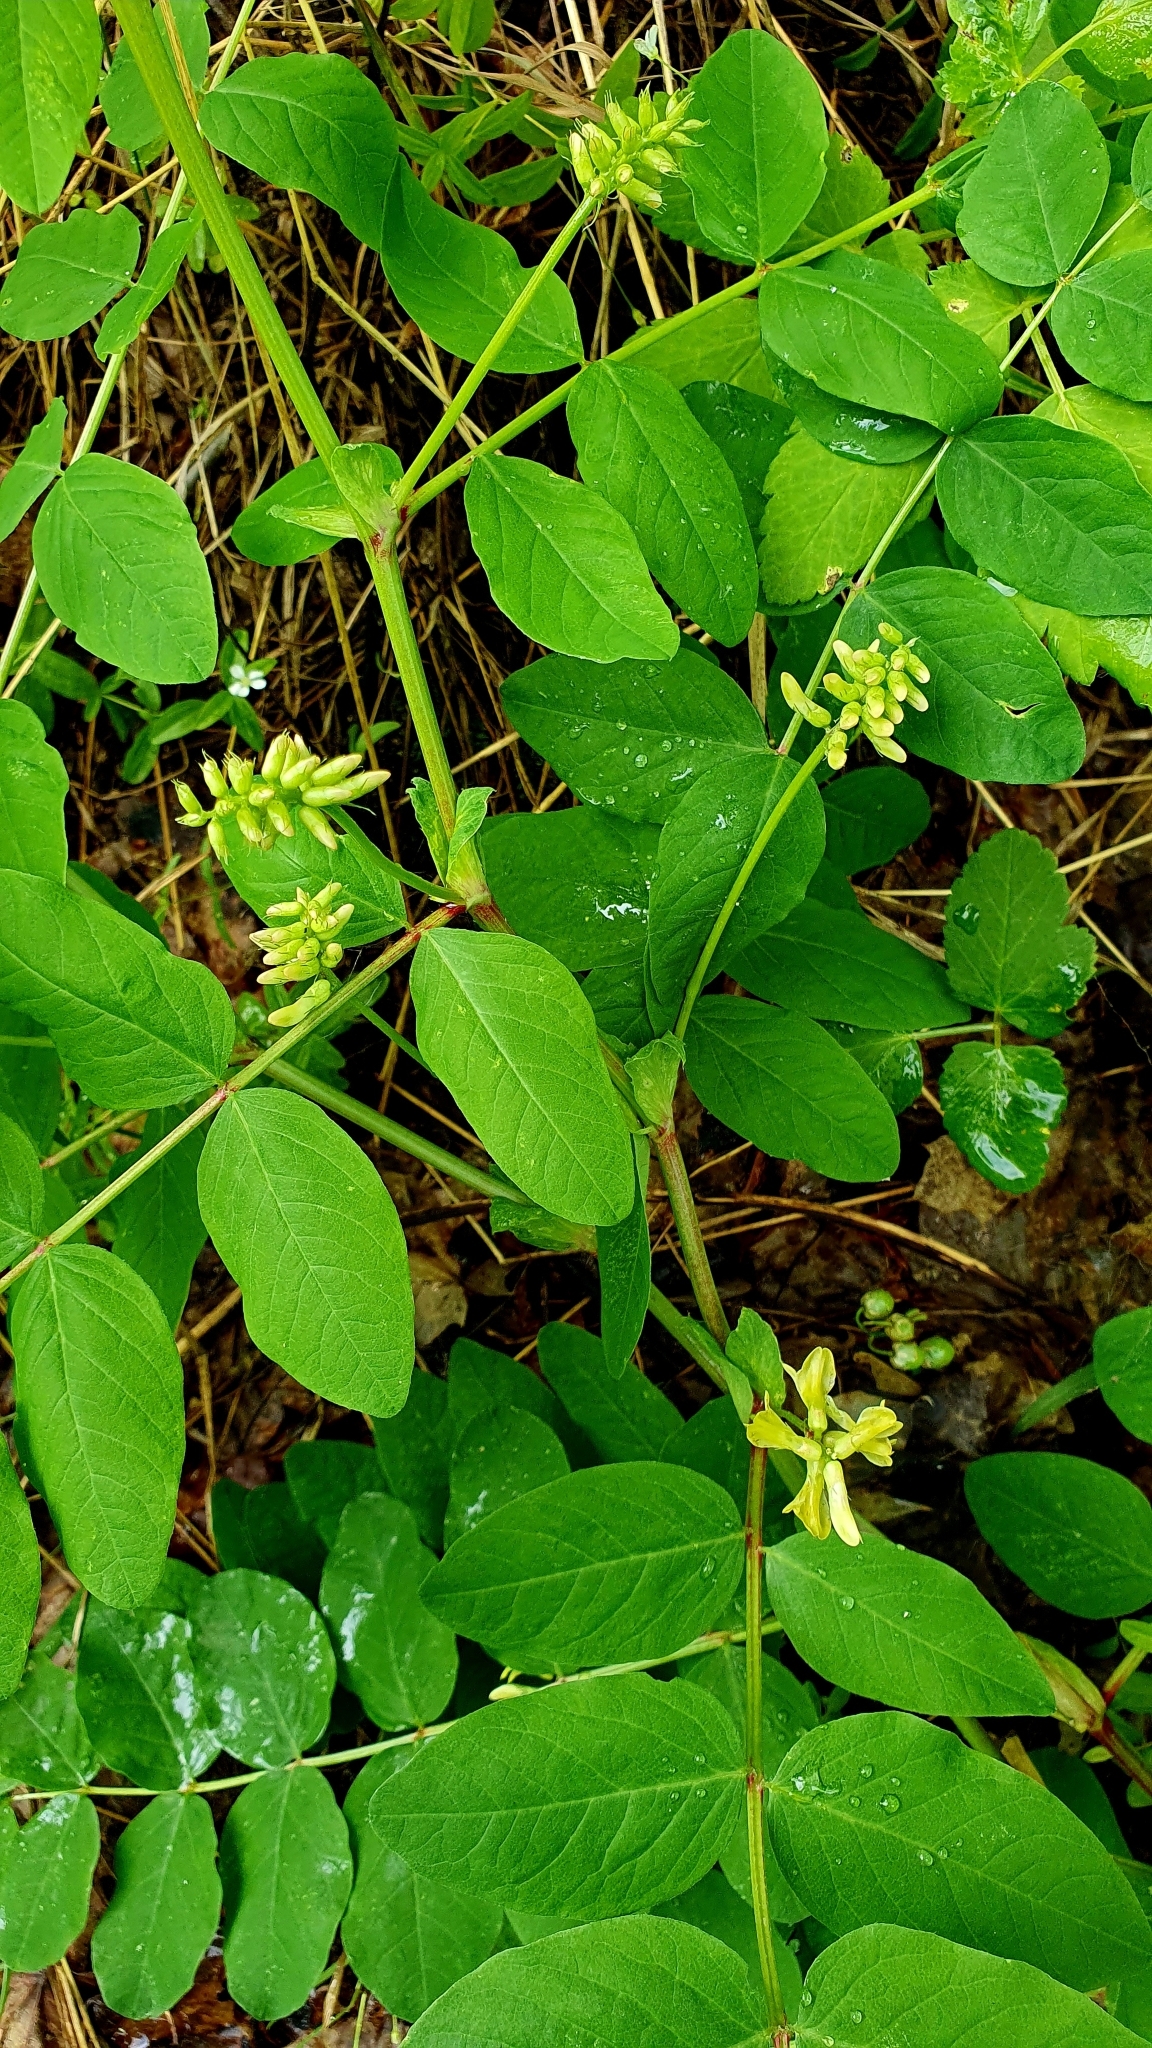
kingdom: Plantae
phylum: Tracheophyta
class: Magnoliopsida
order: Fabales
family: Fabaceae
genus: Astragalus
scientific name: Astragalus glycyphyllos
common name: Wild liquorice
